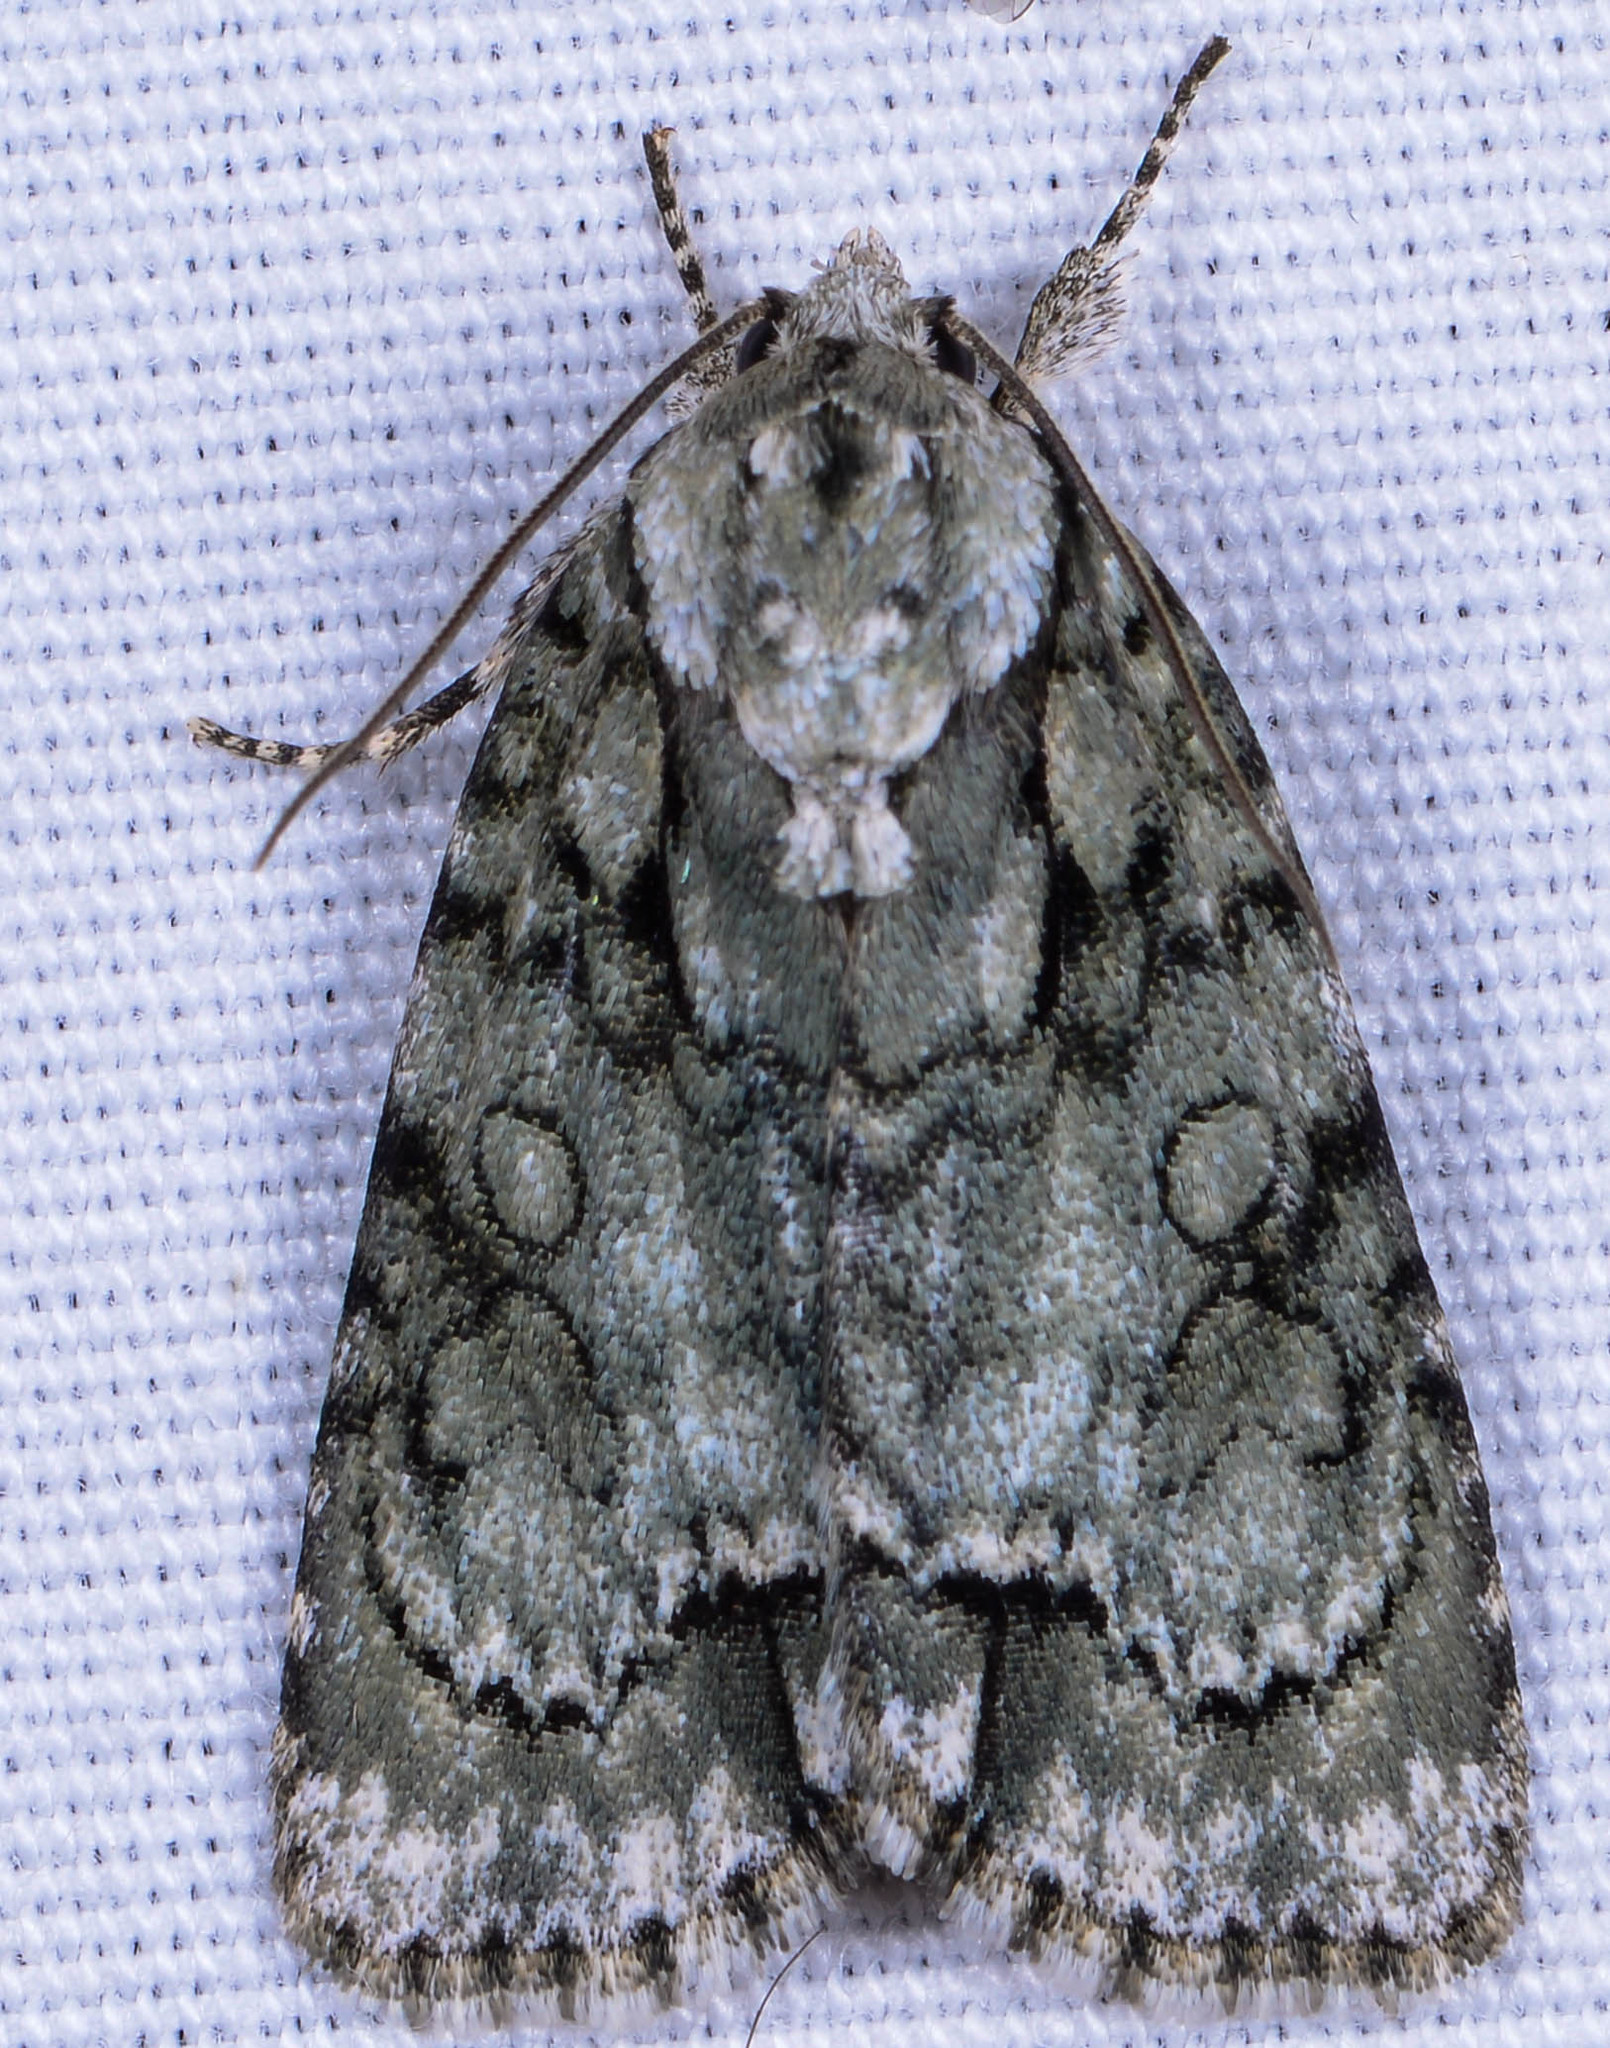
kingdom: Animalia
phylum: Arthropoda
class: Insecta
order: Lepidoptera
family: Noctuidae
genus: Acronicta
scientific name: Acronicta vinnula
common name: Delightful dagger
